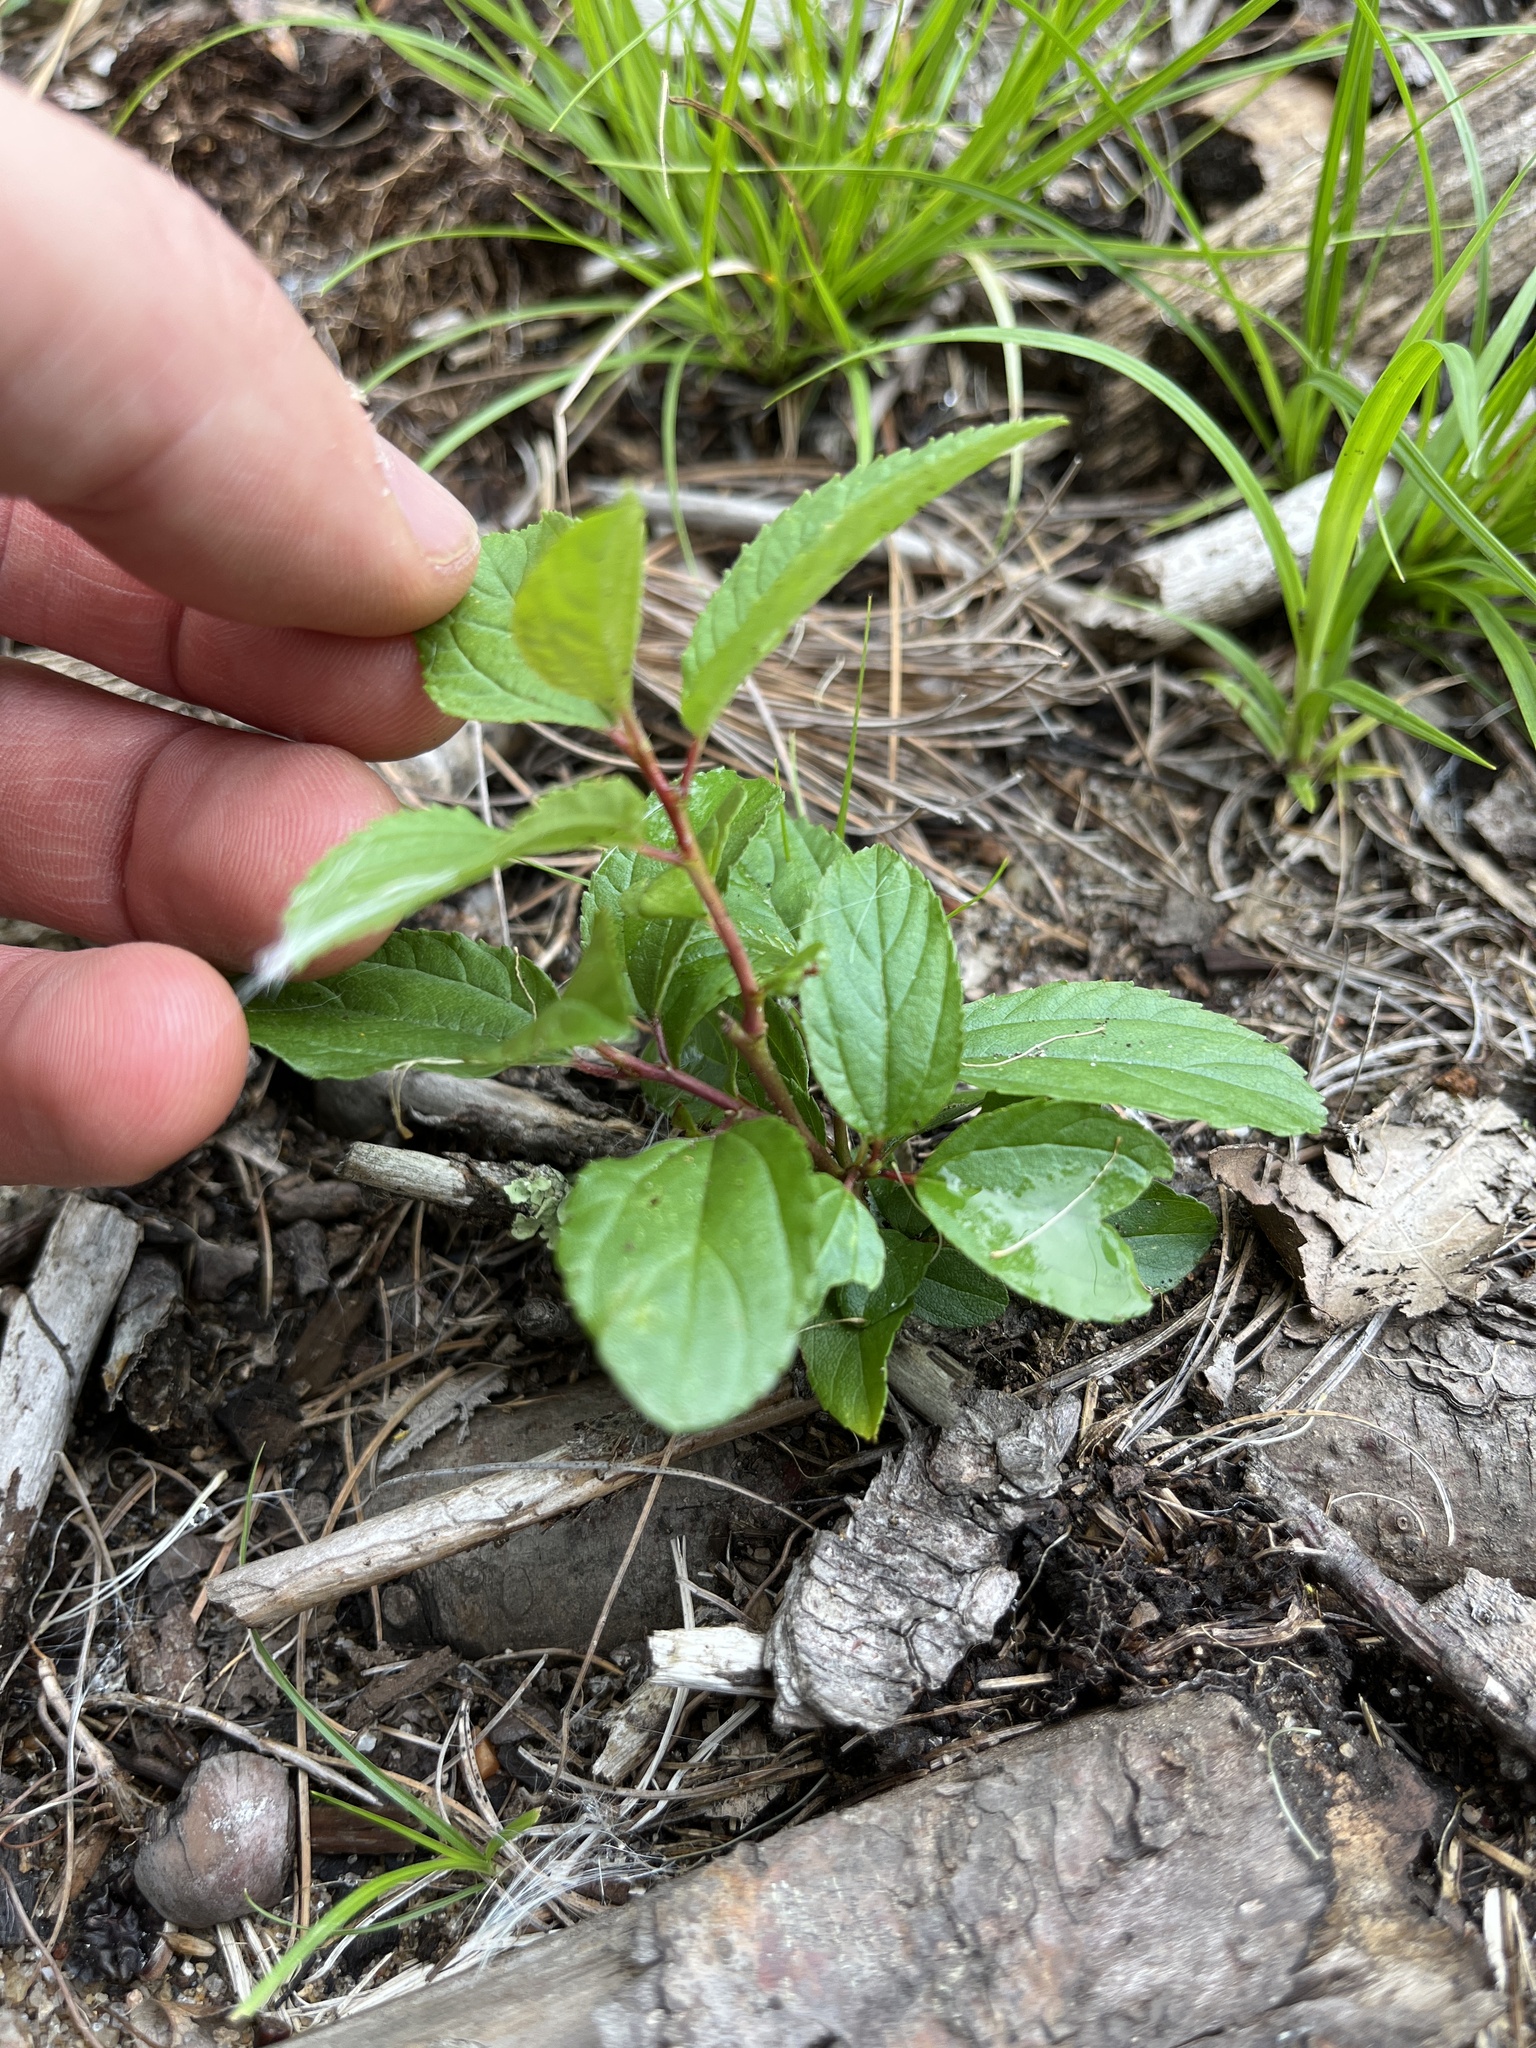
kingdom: Plantae
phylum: Tracheophyta
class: Magnoliopsida
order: Rosales
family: Rhamnaceae
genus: Ceanothus
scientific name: Ceanothus americanus
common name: Redroot
